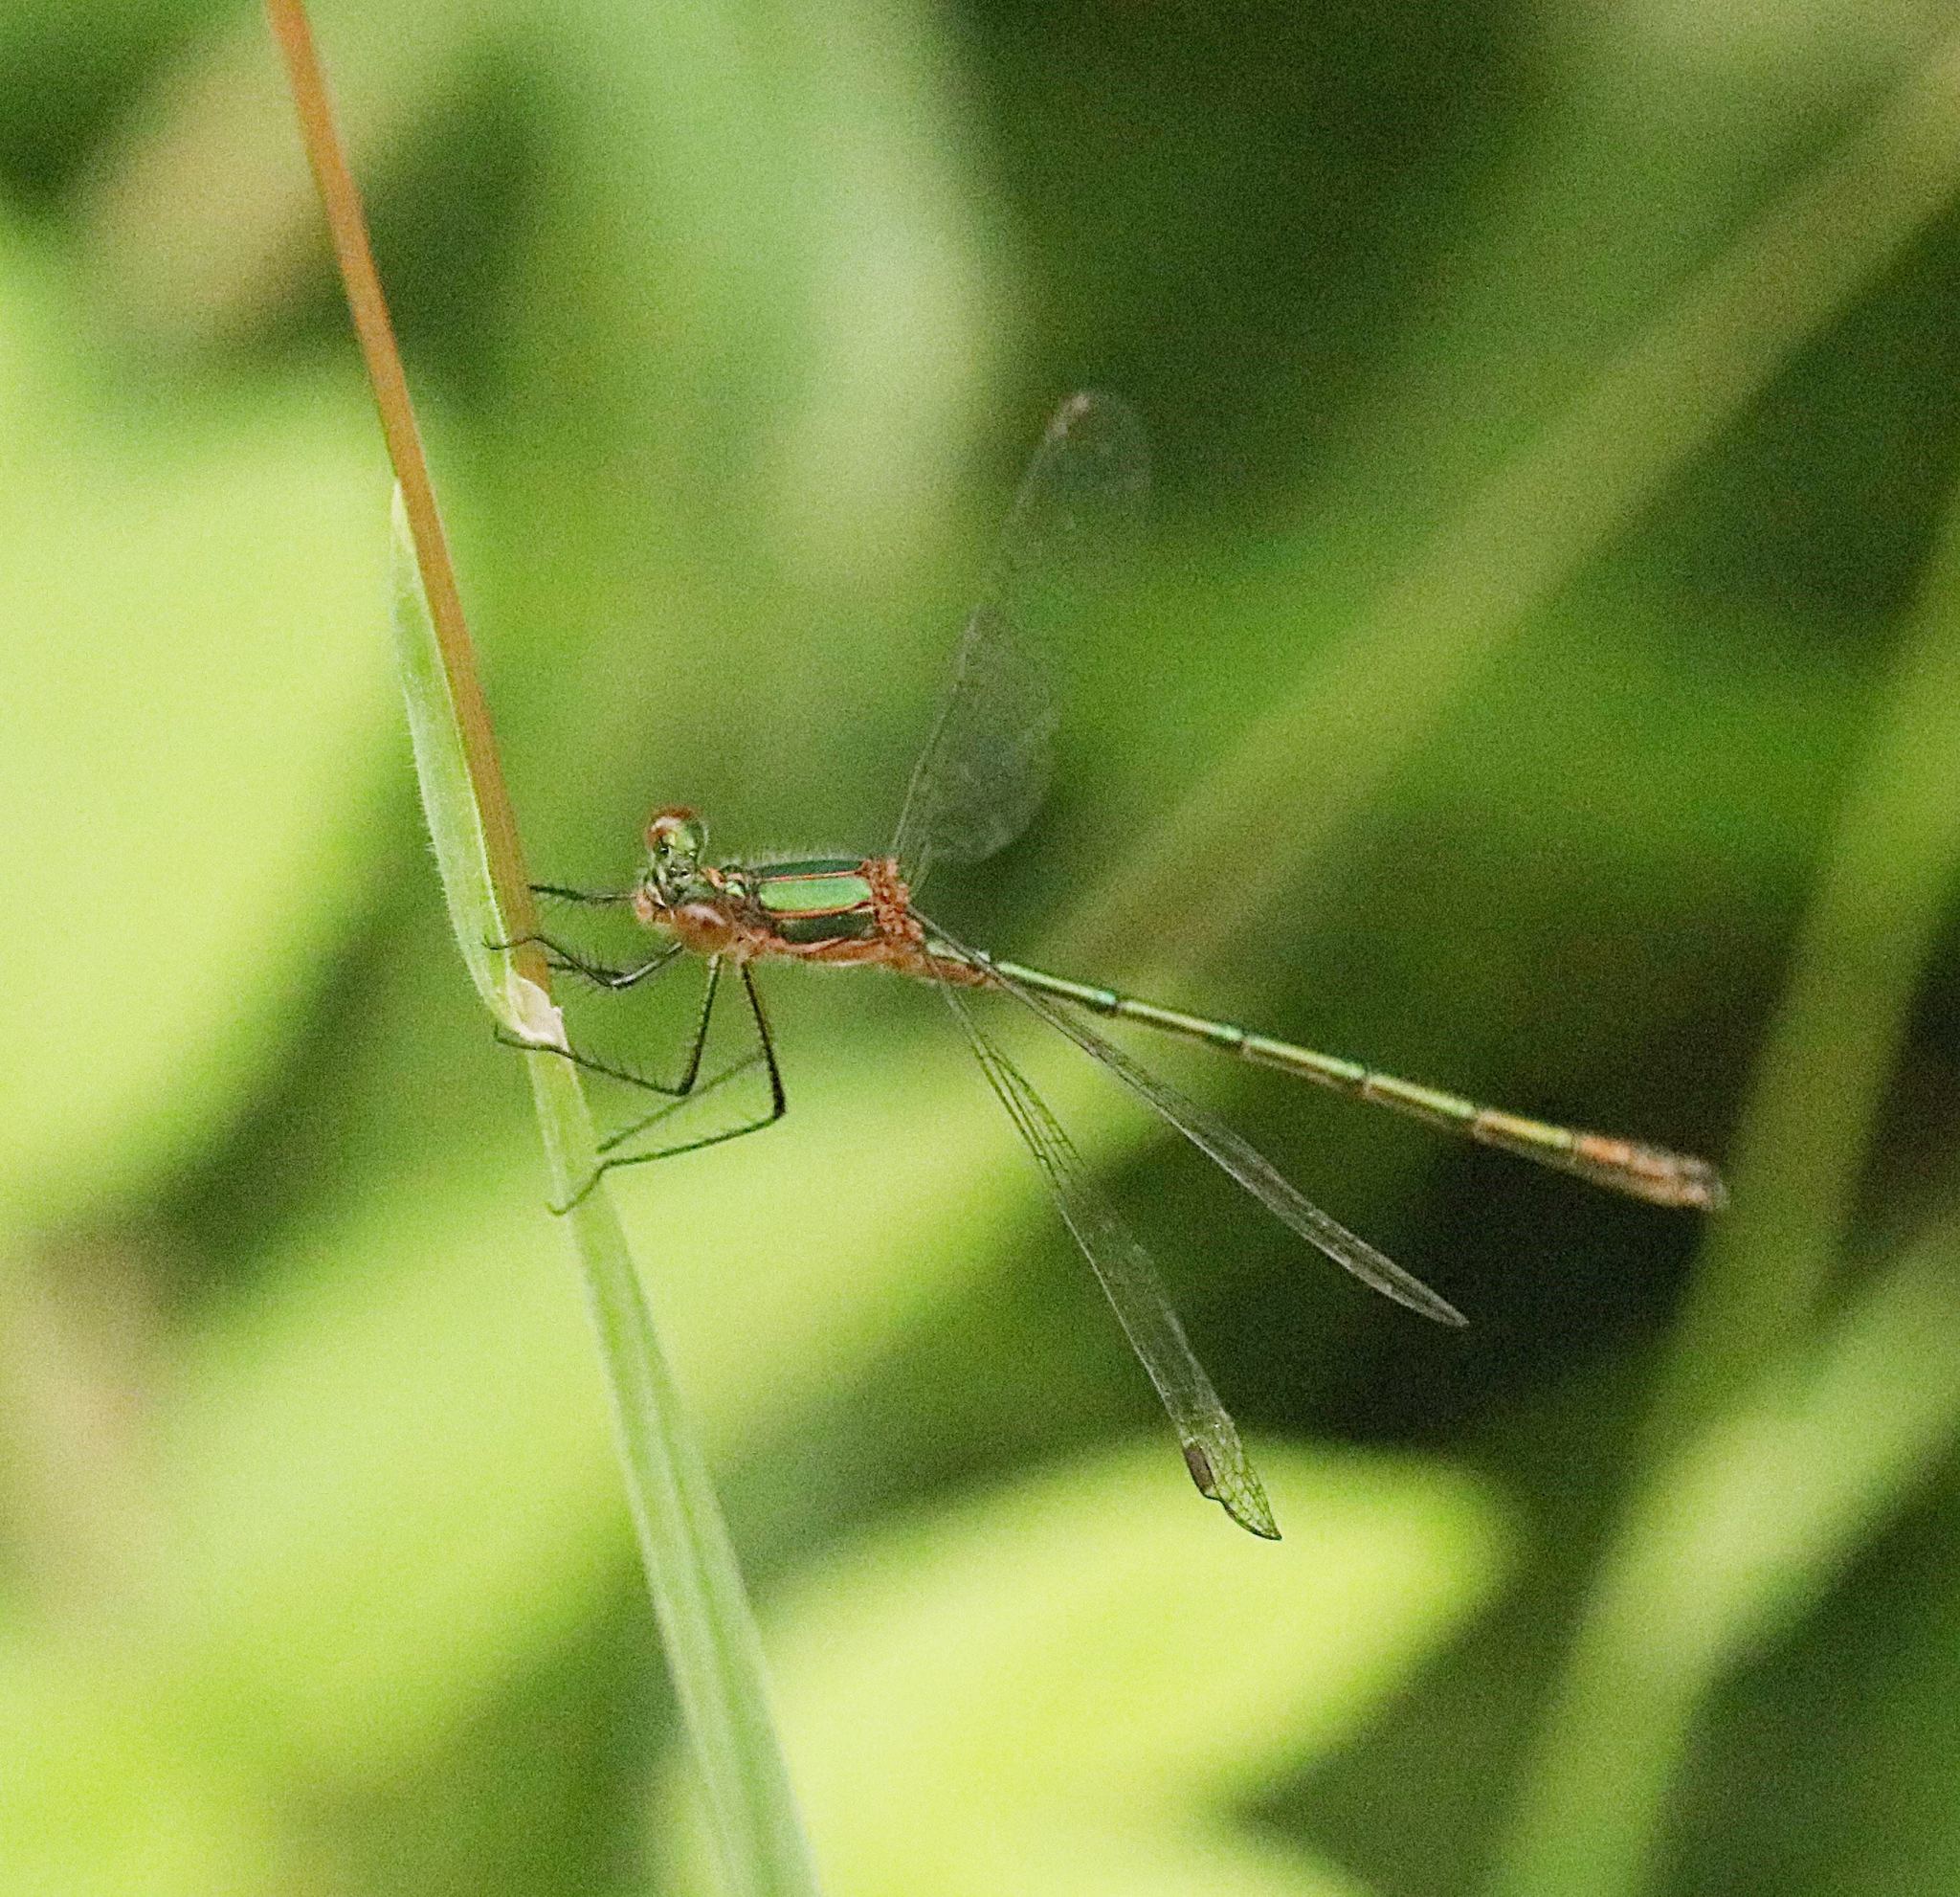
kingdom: Animalia
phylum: Arthropoda
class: Insecta
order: Odonata
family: Lestidae
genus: Lestes
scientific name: Lestes sponsa
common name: Common spreadwing
